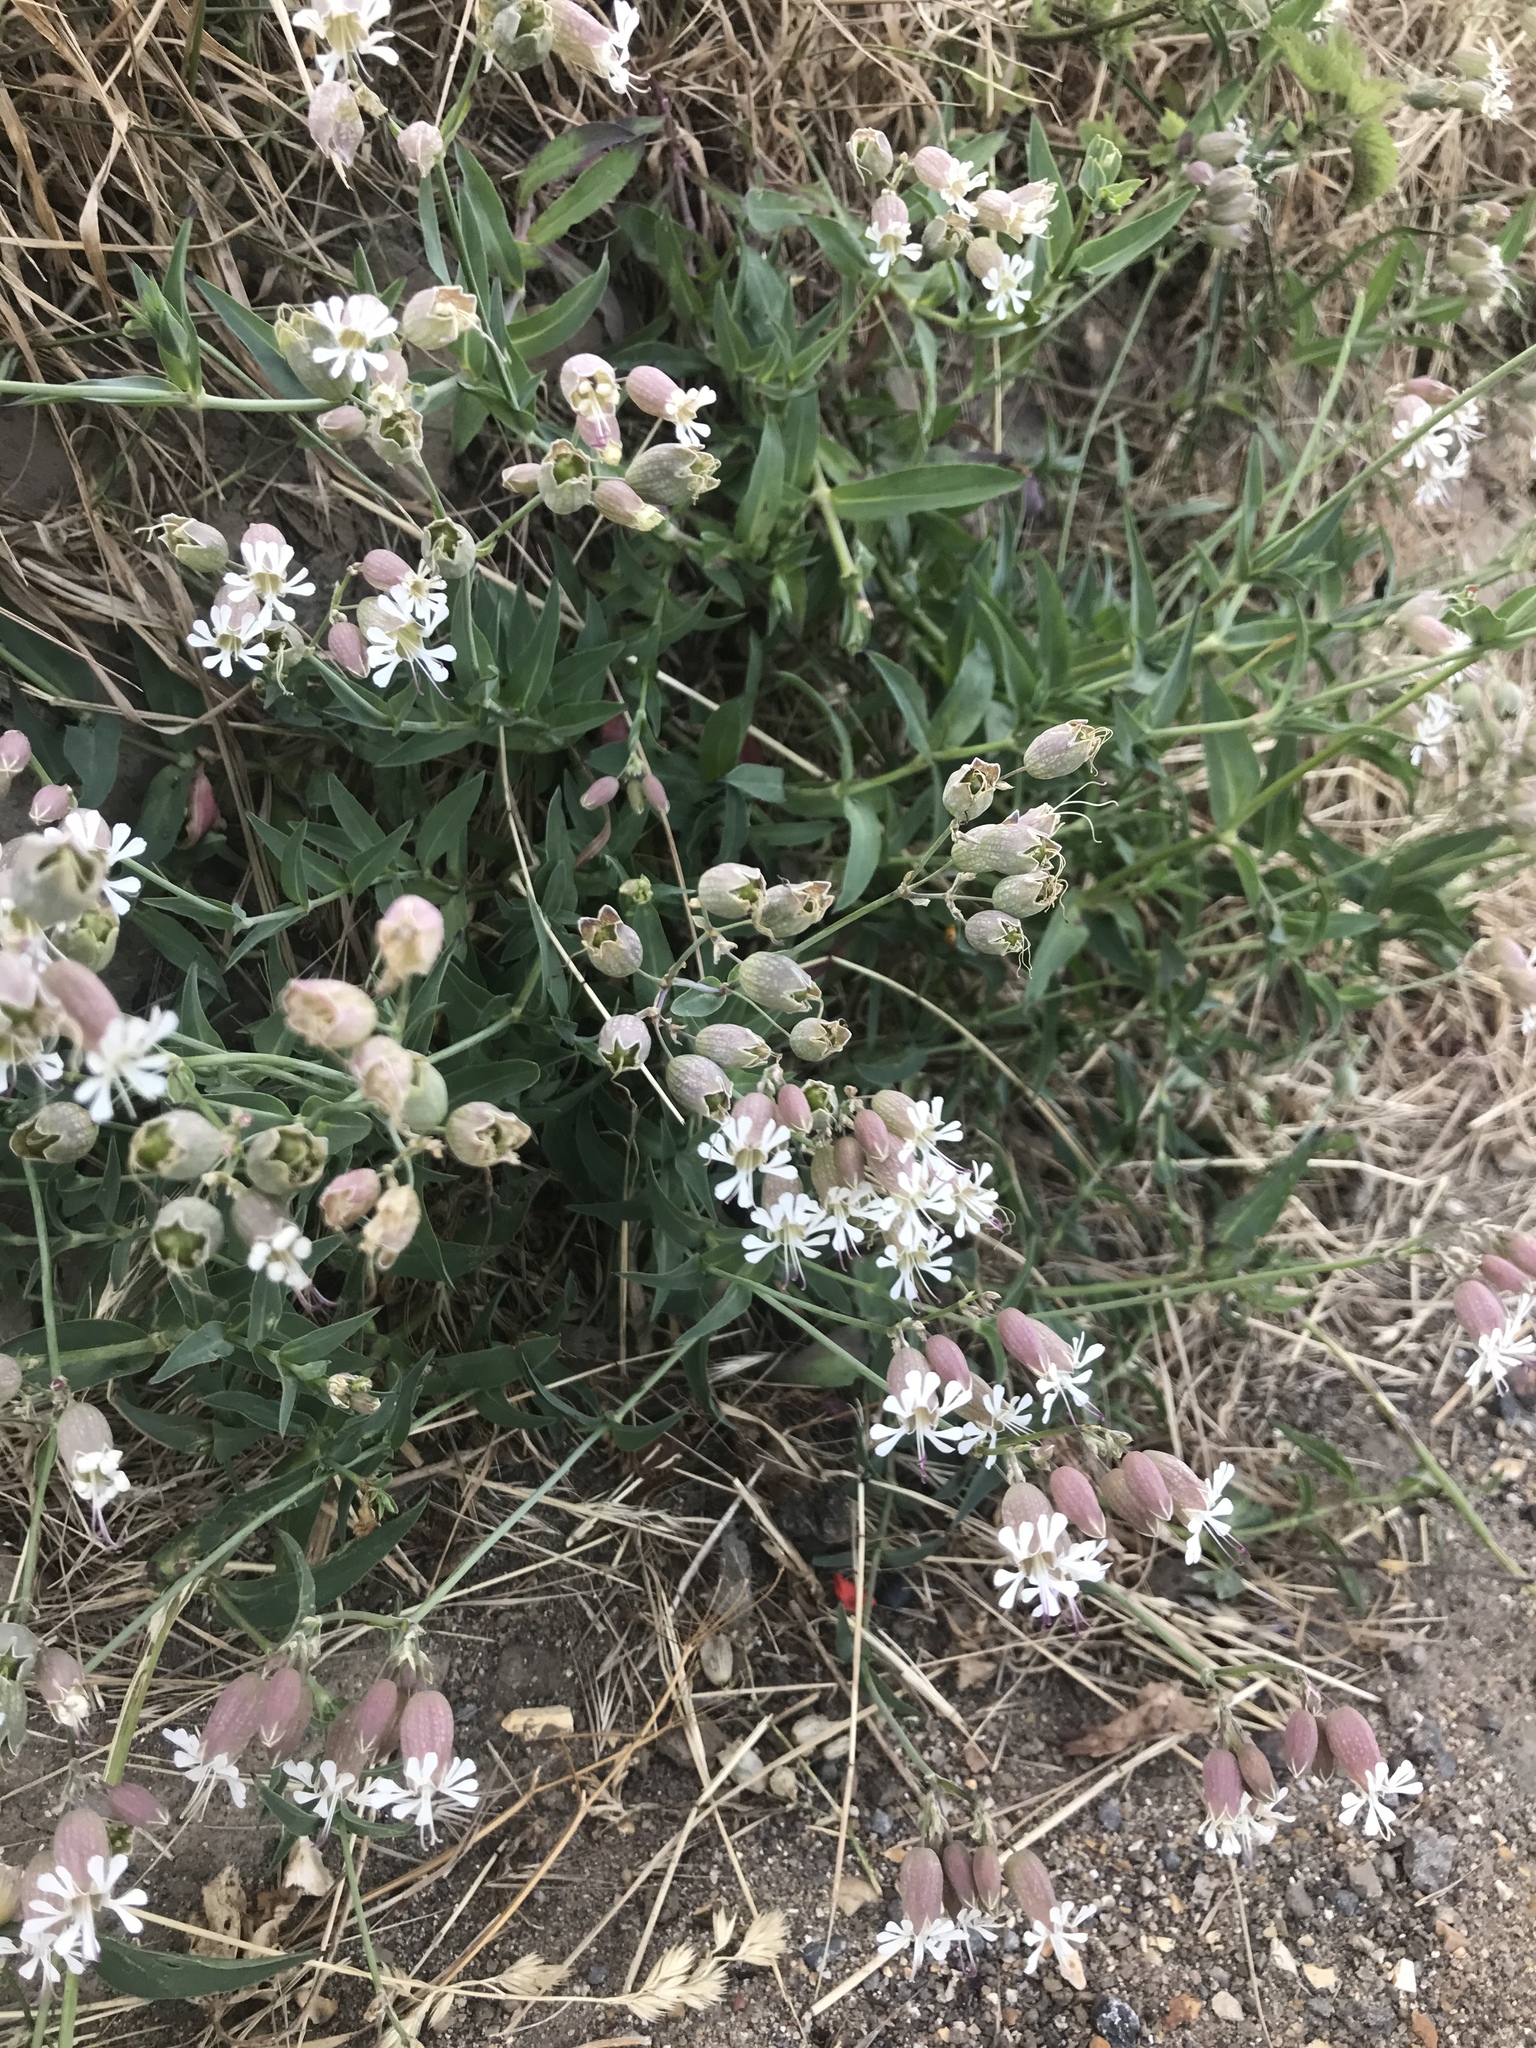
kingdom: Plantae
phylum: Tracheophyta
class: Magnoliopsida
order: Caryophyllales
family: Caryophyllaceae
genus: Silene
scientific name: Silene vulgaris
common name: Bladder campion
